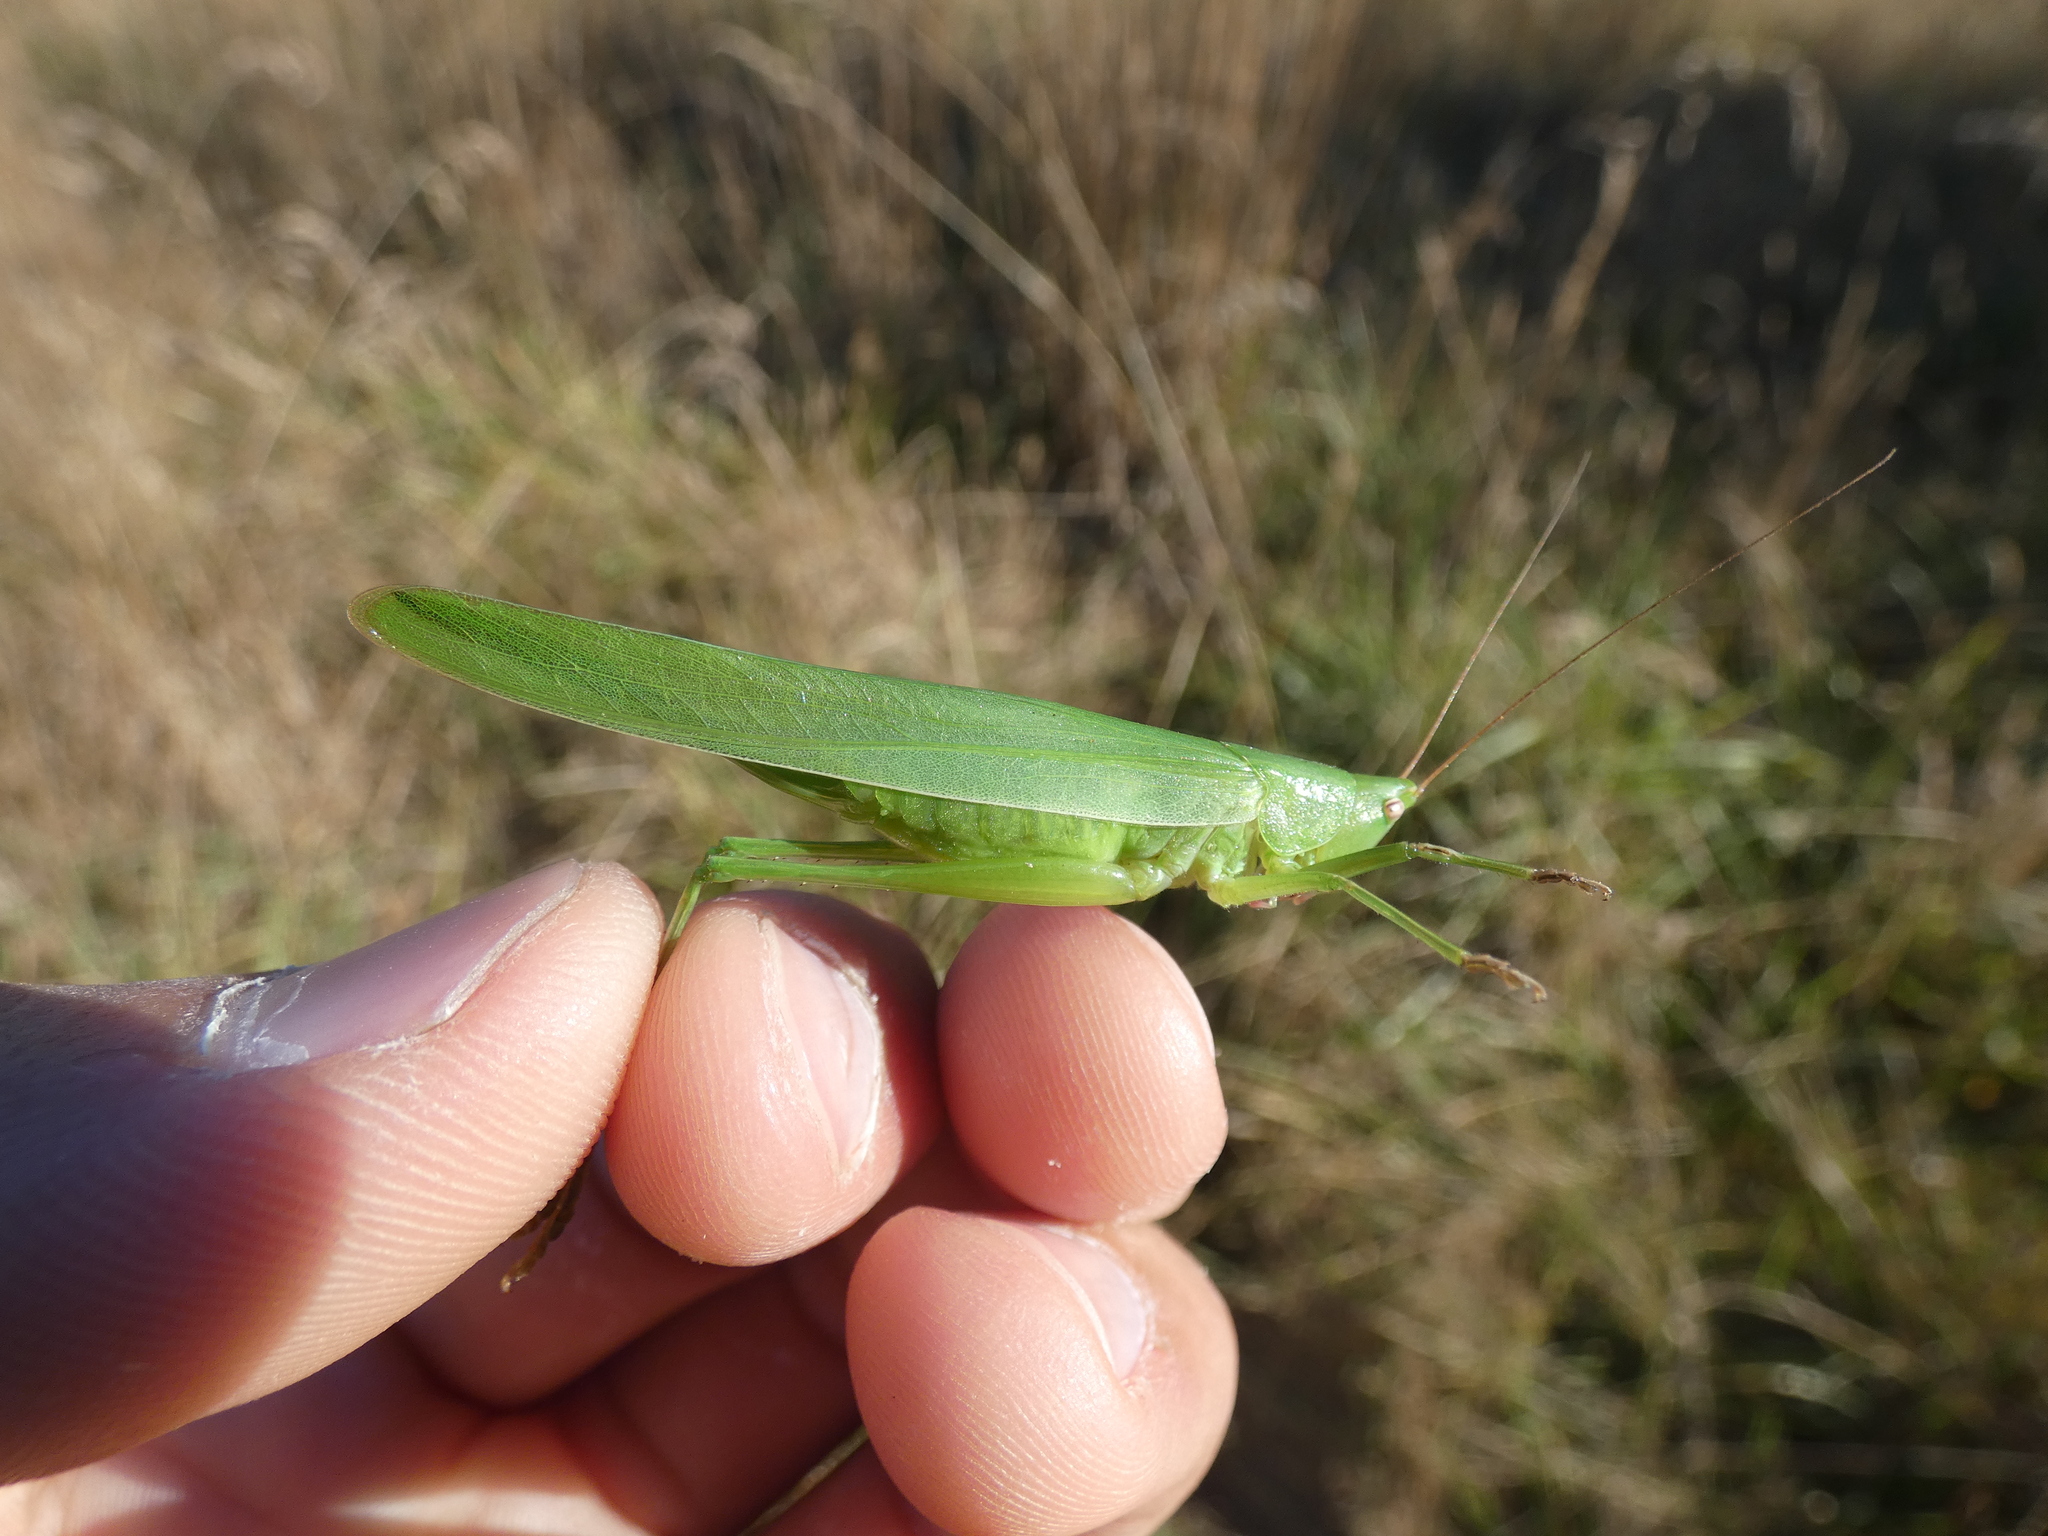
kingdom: Animalia
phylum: Arthropoda
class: Insecta
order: Orthoptera
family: Tettigoniidae
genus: Ruspolia
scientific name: Ruspolia nitidula
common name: Large conehead
